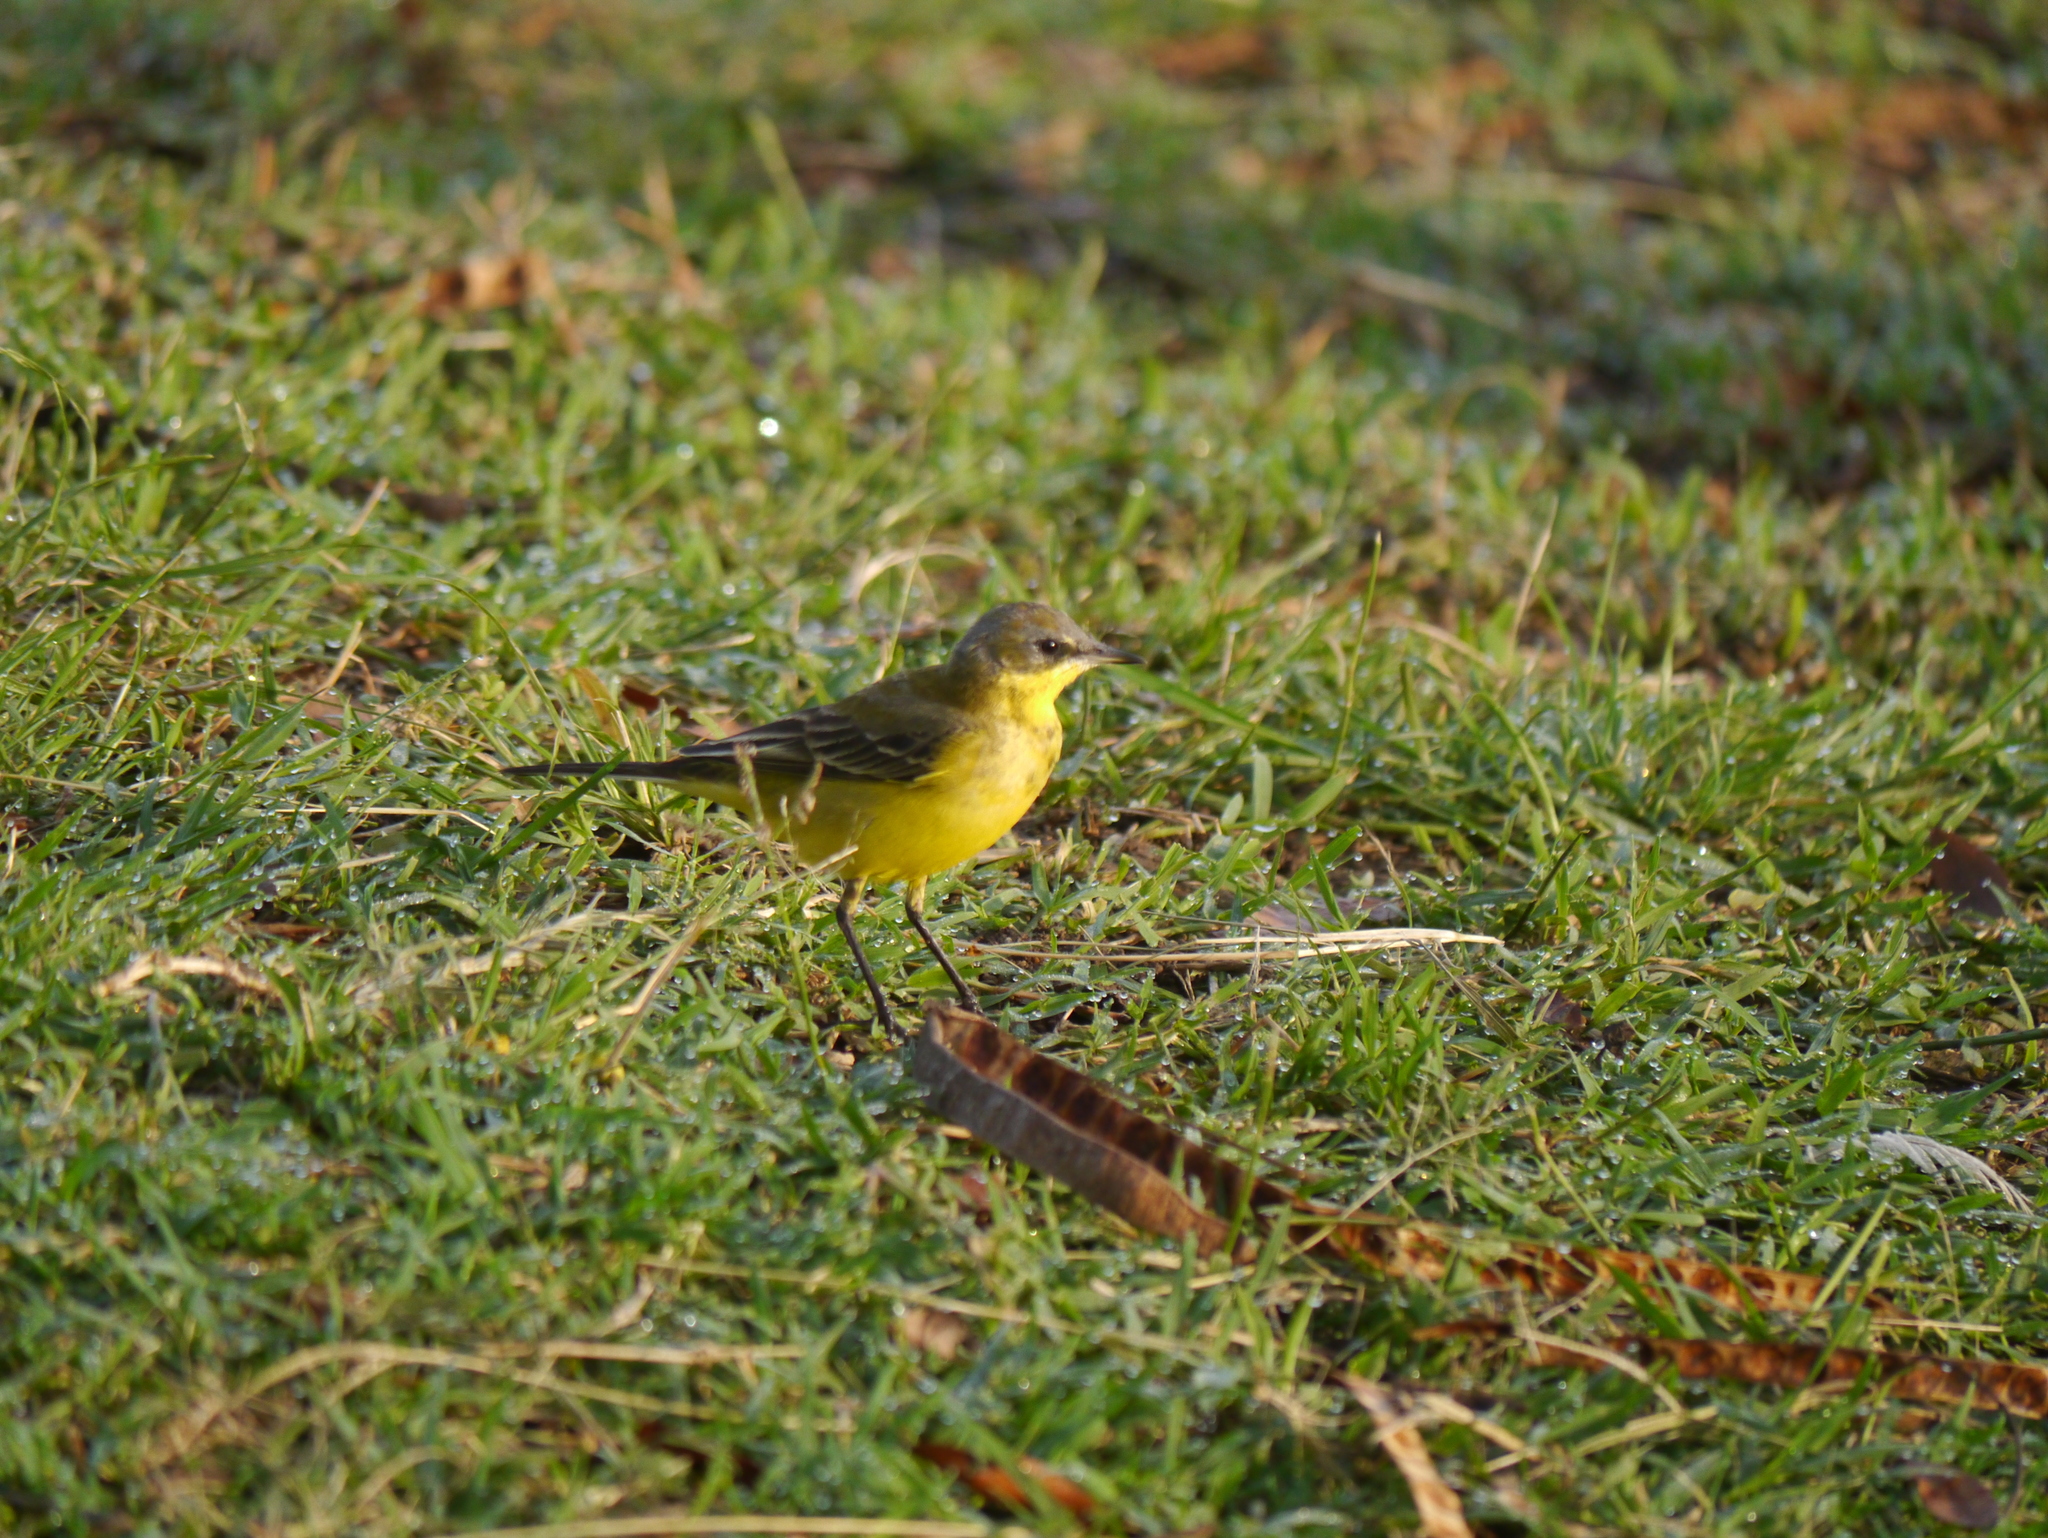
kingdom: Animalia
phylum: Chordata
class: Aves
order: Passeriformes
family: Motacillidae
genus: Motacilla
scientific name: Motacilla flava
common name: Western yellow wagtail
